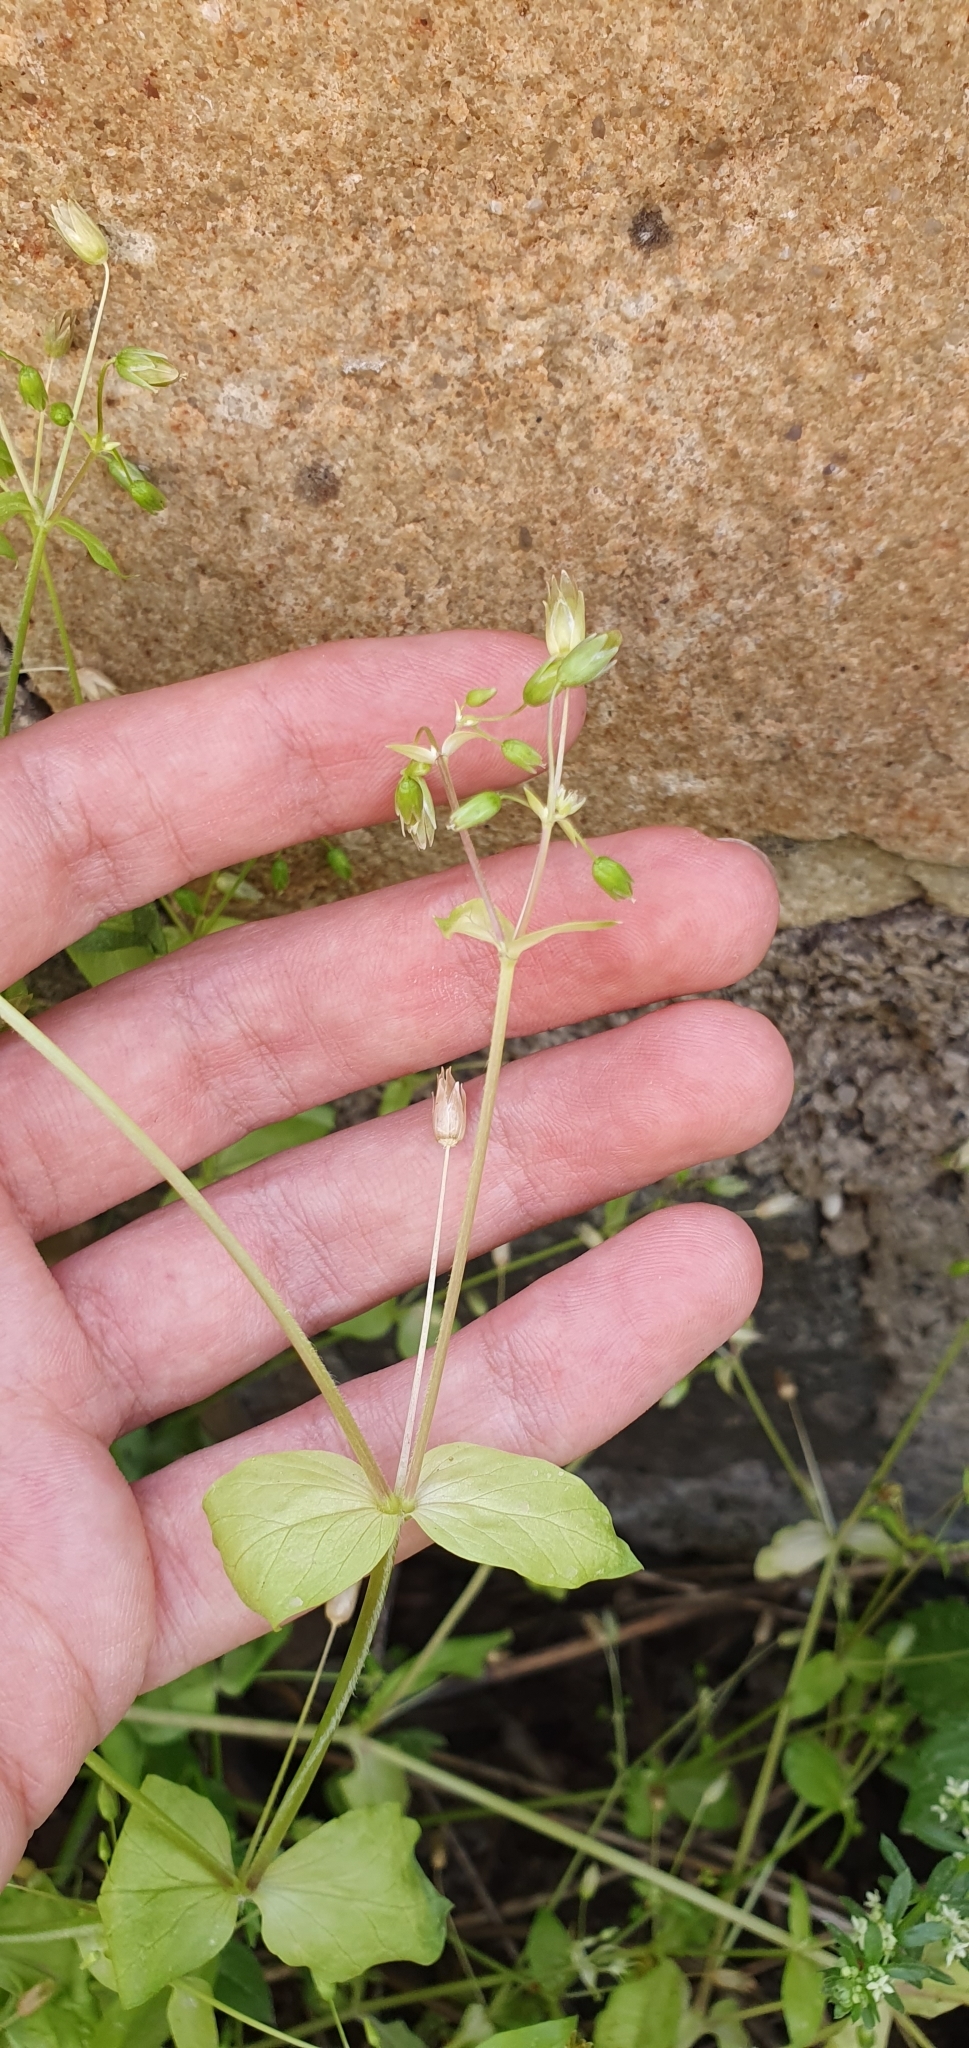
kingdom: Plantae
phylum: Tracheophyta
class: Magnoliopsida
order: Caryophyllales
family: Caryophyllaceae
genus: Stellaria
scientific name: Stellaria apetala
